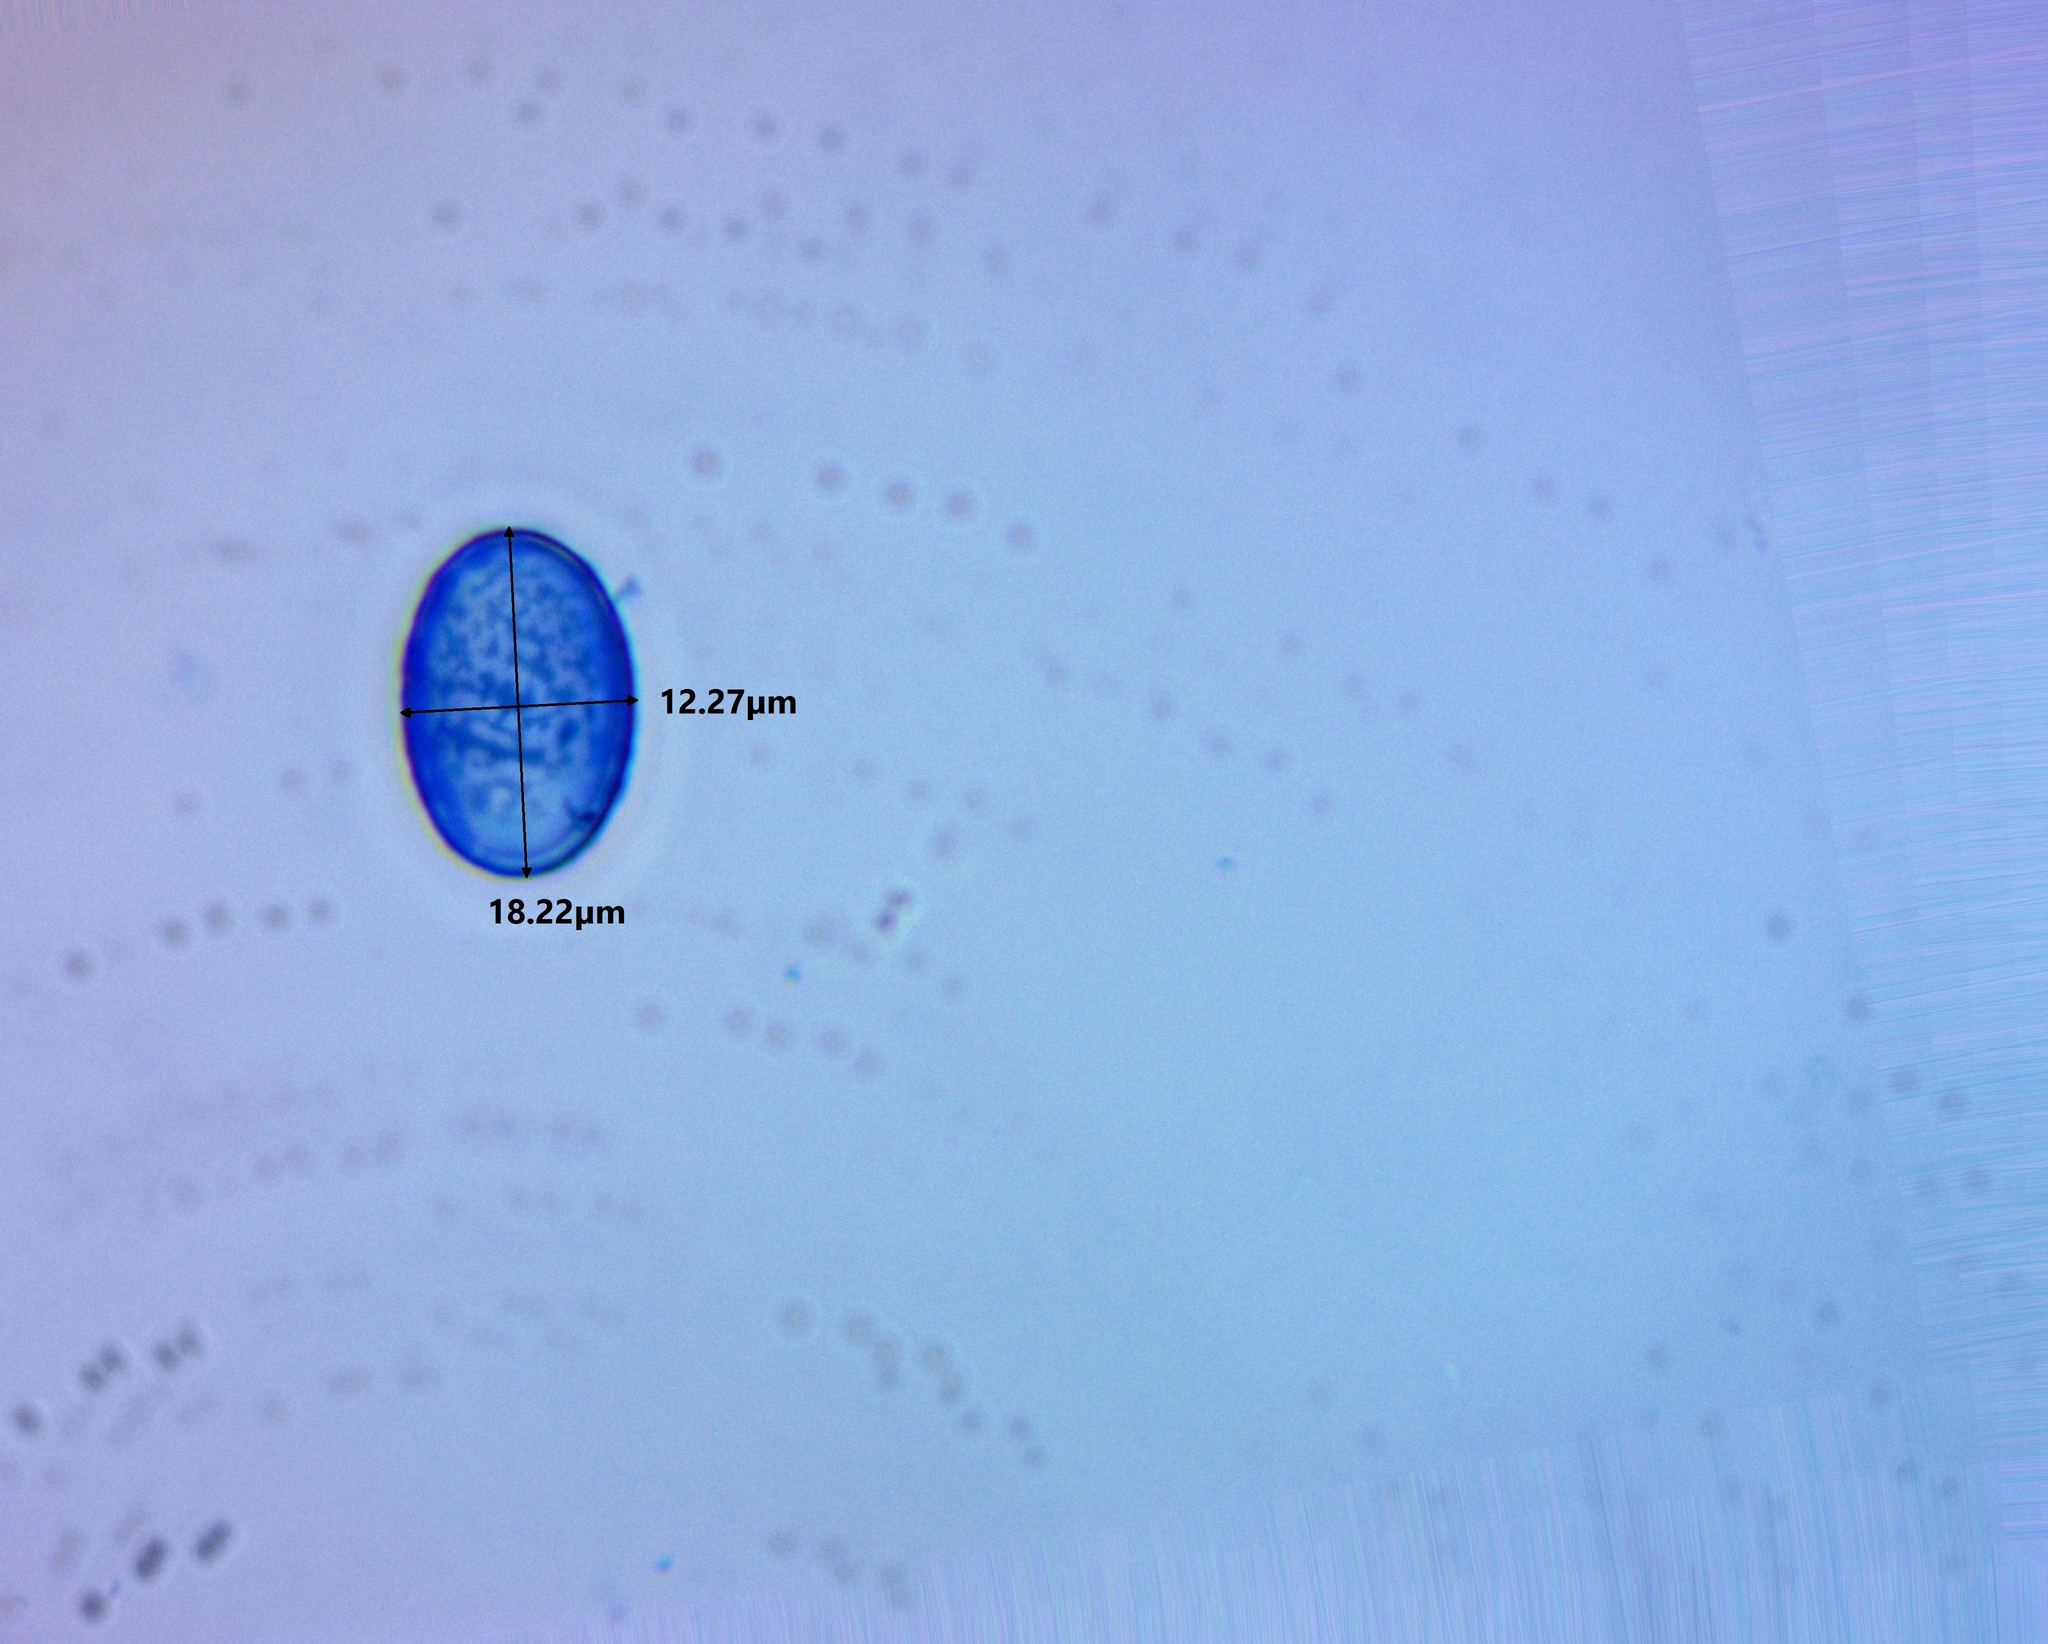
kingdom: Fungi
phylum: Ascomycota
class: Pezizomycetes
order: Pezizales
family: Pyronemataceae
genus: Scutellinia
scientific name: Scutellinia crinita
